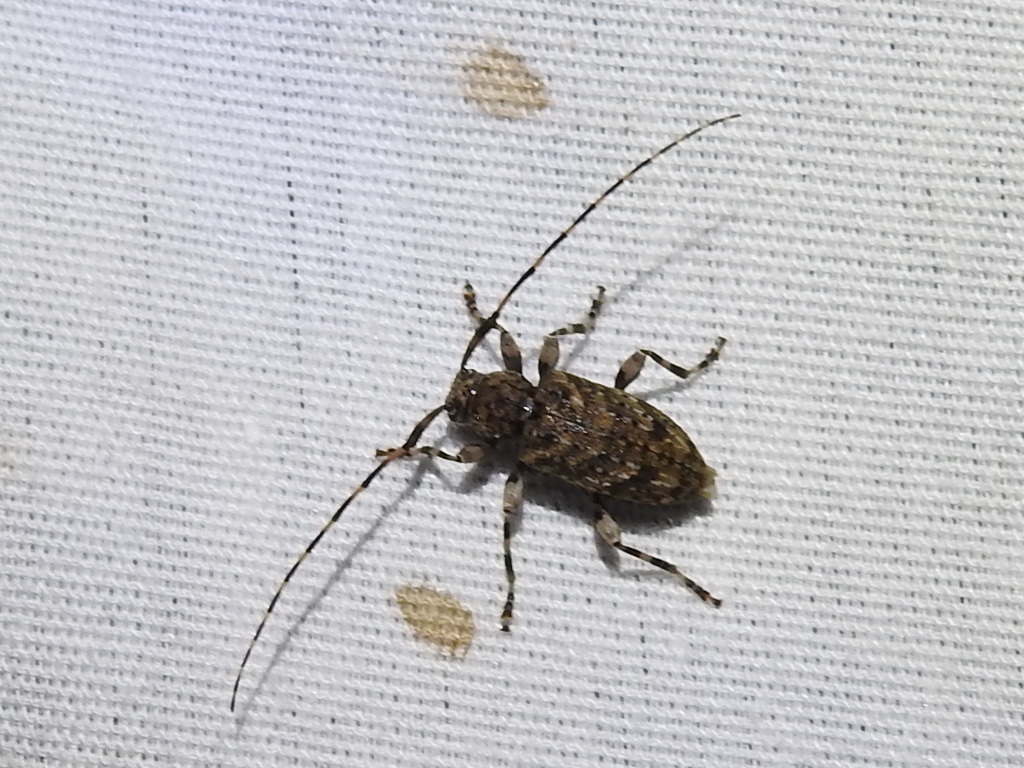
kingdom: Animalia
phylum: Arthropoda
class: Insecta
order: Coleoptera
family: Cerambycidae
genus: Astyleiopus
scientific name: Astyleiopus variegatus
